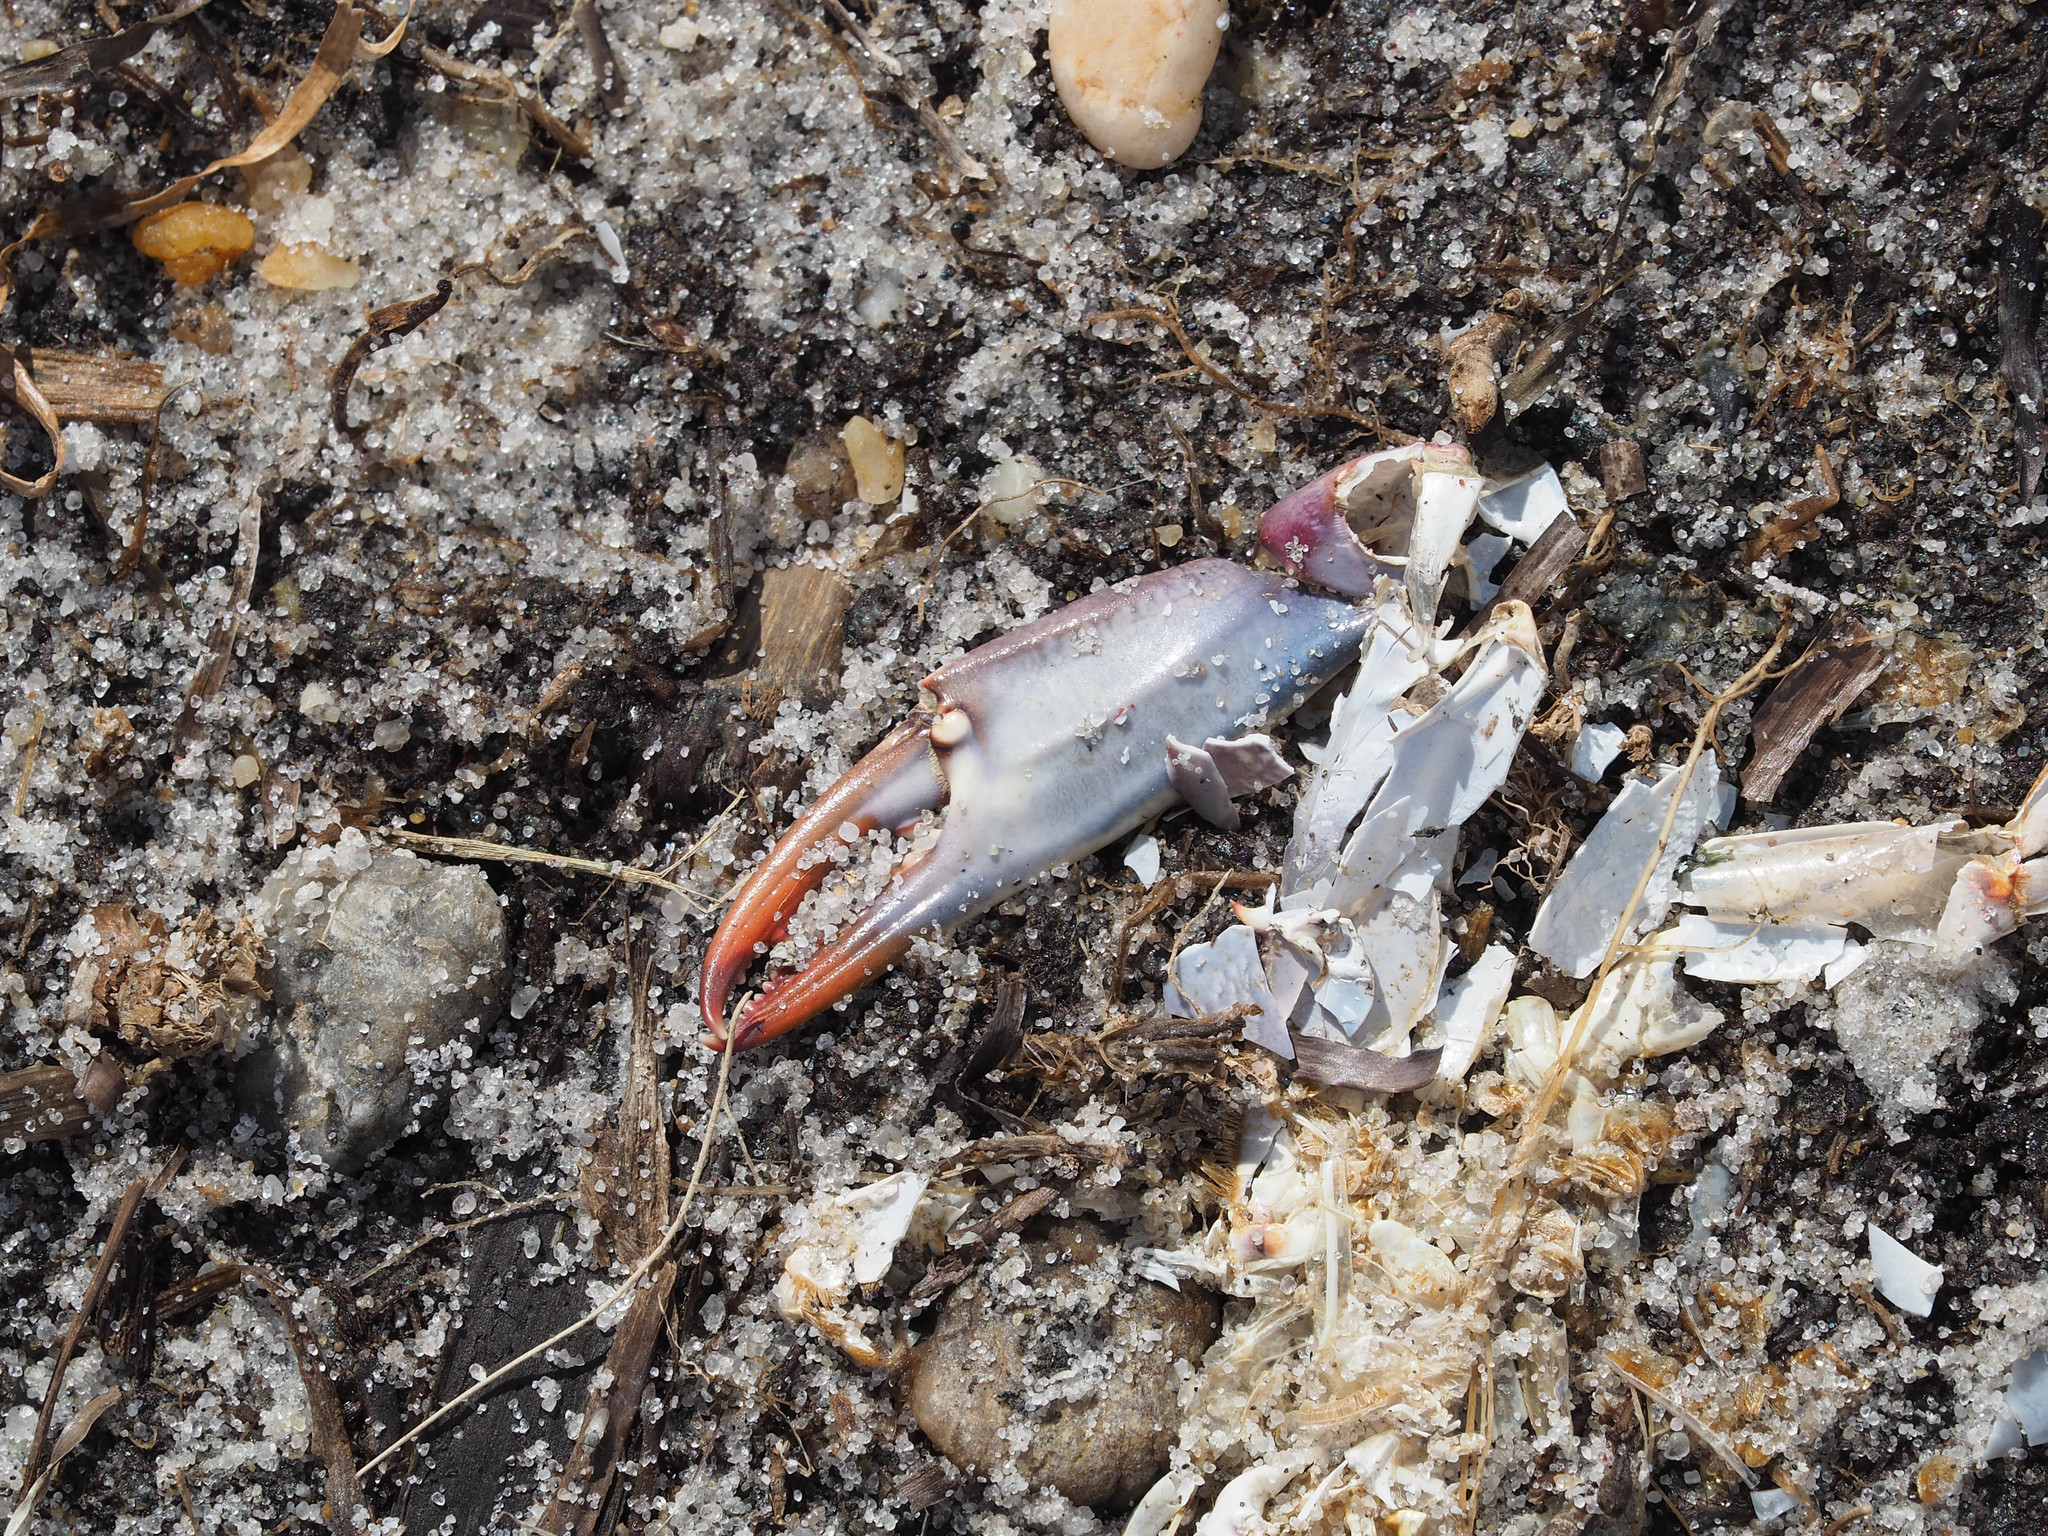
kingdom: Animalia
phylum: Arthropoda
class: Malacostraca
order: Decapoda
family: Portunidae
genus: Callinectes
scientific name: Callinectes sapidus
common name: Blue crab
